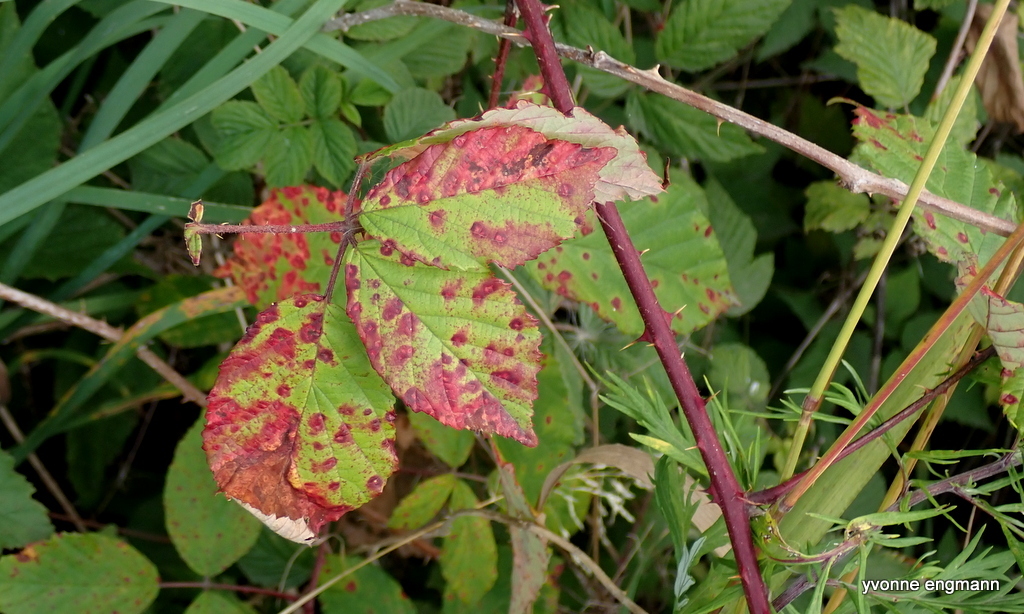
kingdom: Fungi
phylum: Basidiomycota
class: Pucciniomycetes
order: Pucciniales
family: Phragmidiaceae
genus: Phragmidium
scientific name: Phragmidium violaceum
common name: Violet bramble rust
